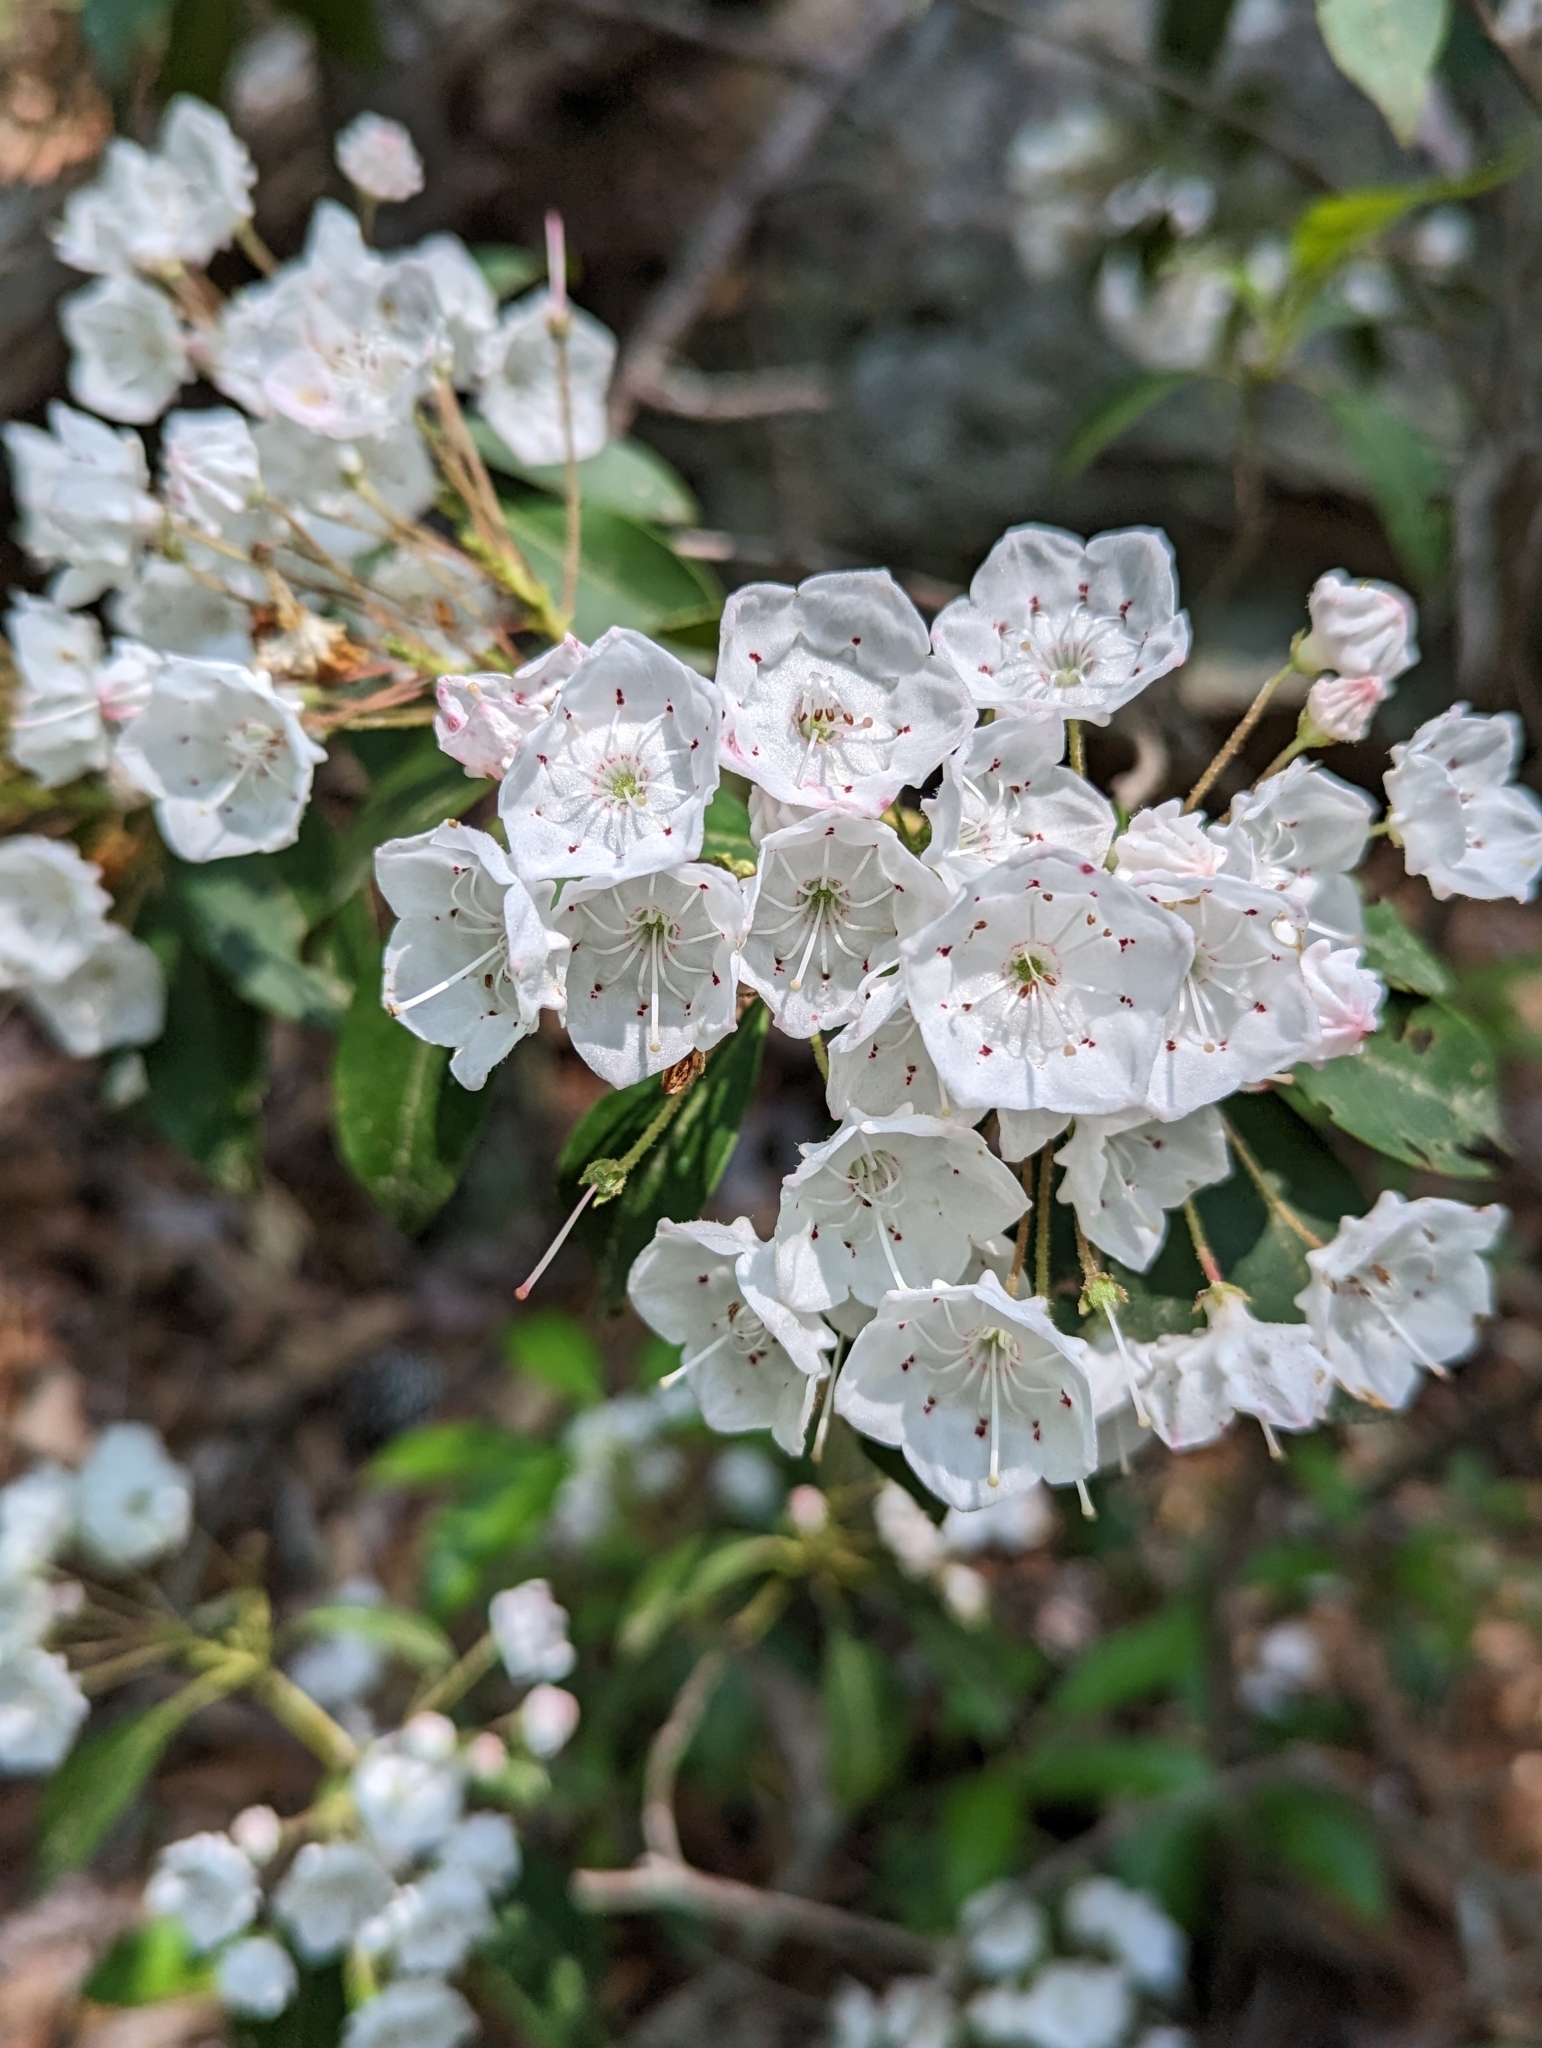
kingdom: Plantae
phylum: Tracheophyta
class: Magnoliopsida
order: Ericales
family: Ericaceae
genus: Kalmia
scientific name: Kalmia latifolia
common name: Mountain-laurel
